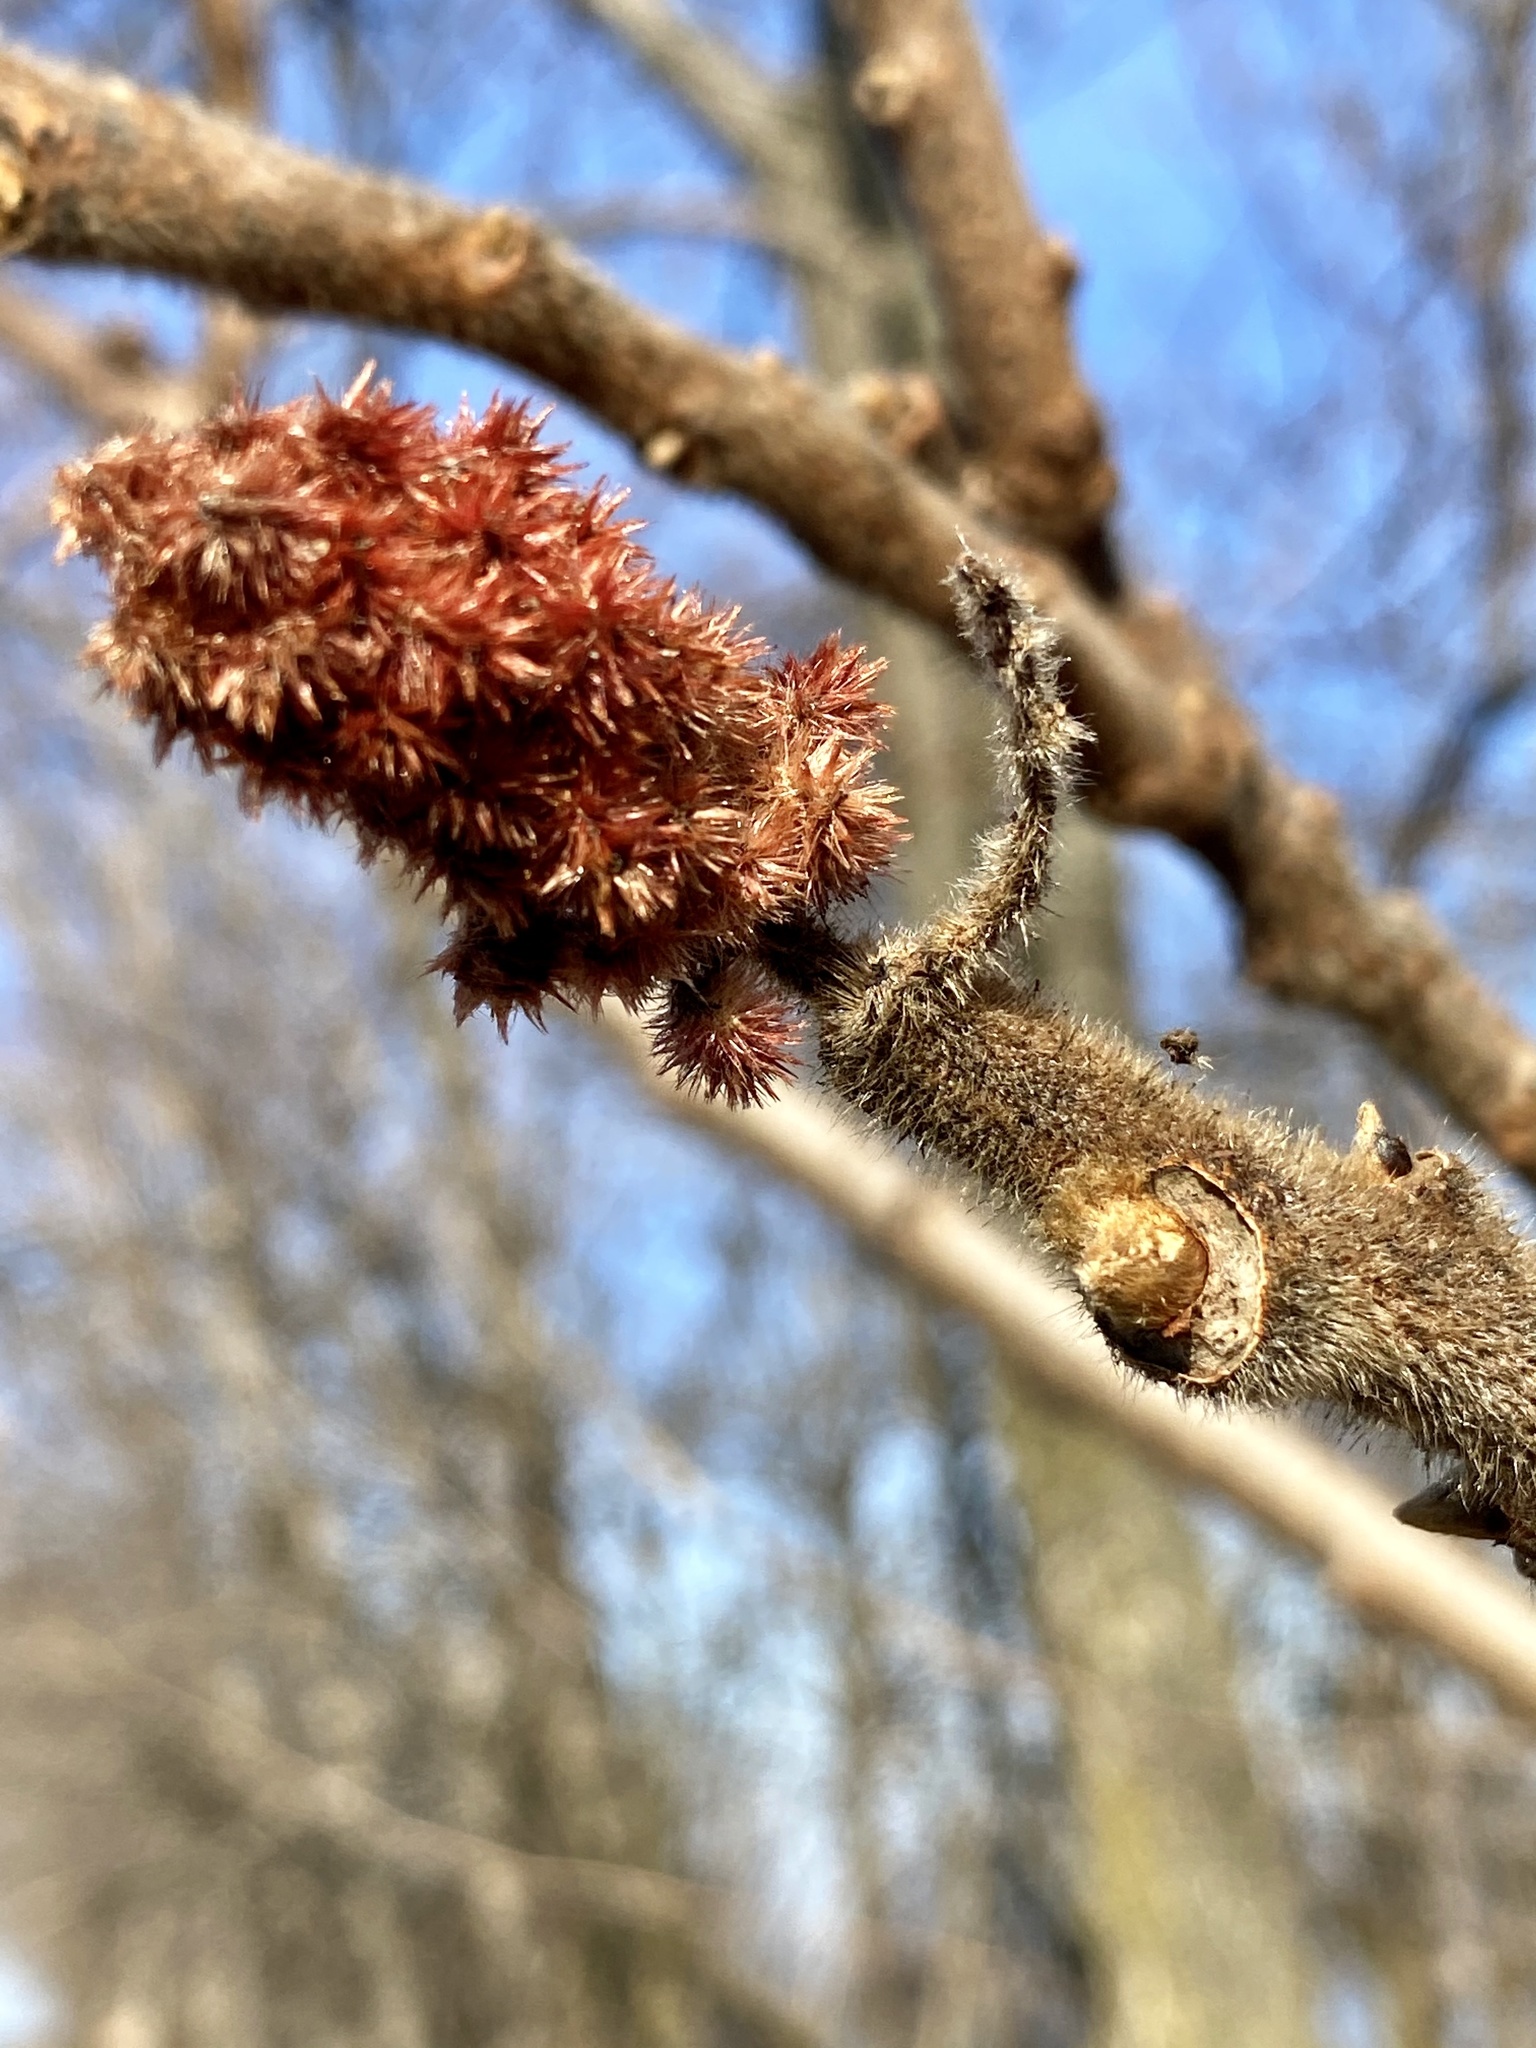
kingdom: Plantae
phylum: Tracheophyta
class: Magnoliopsida
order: Sapindales
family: Anacardiaceae
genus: Rhus
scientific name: Rhus typhina
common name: Staghorn sumac
